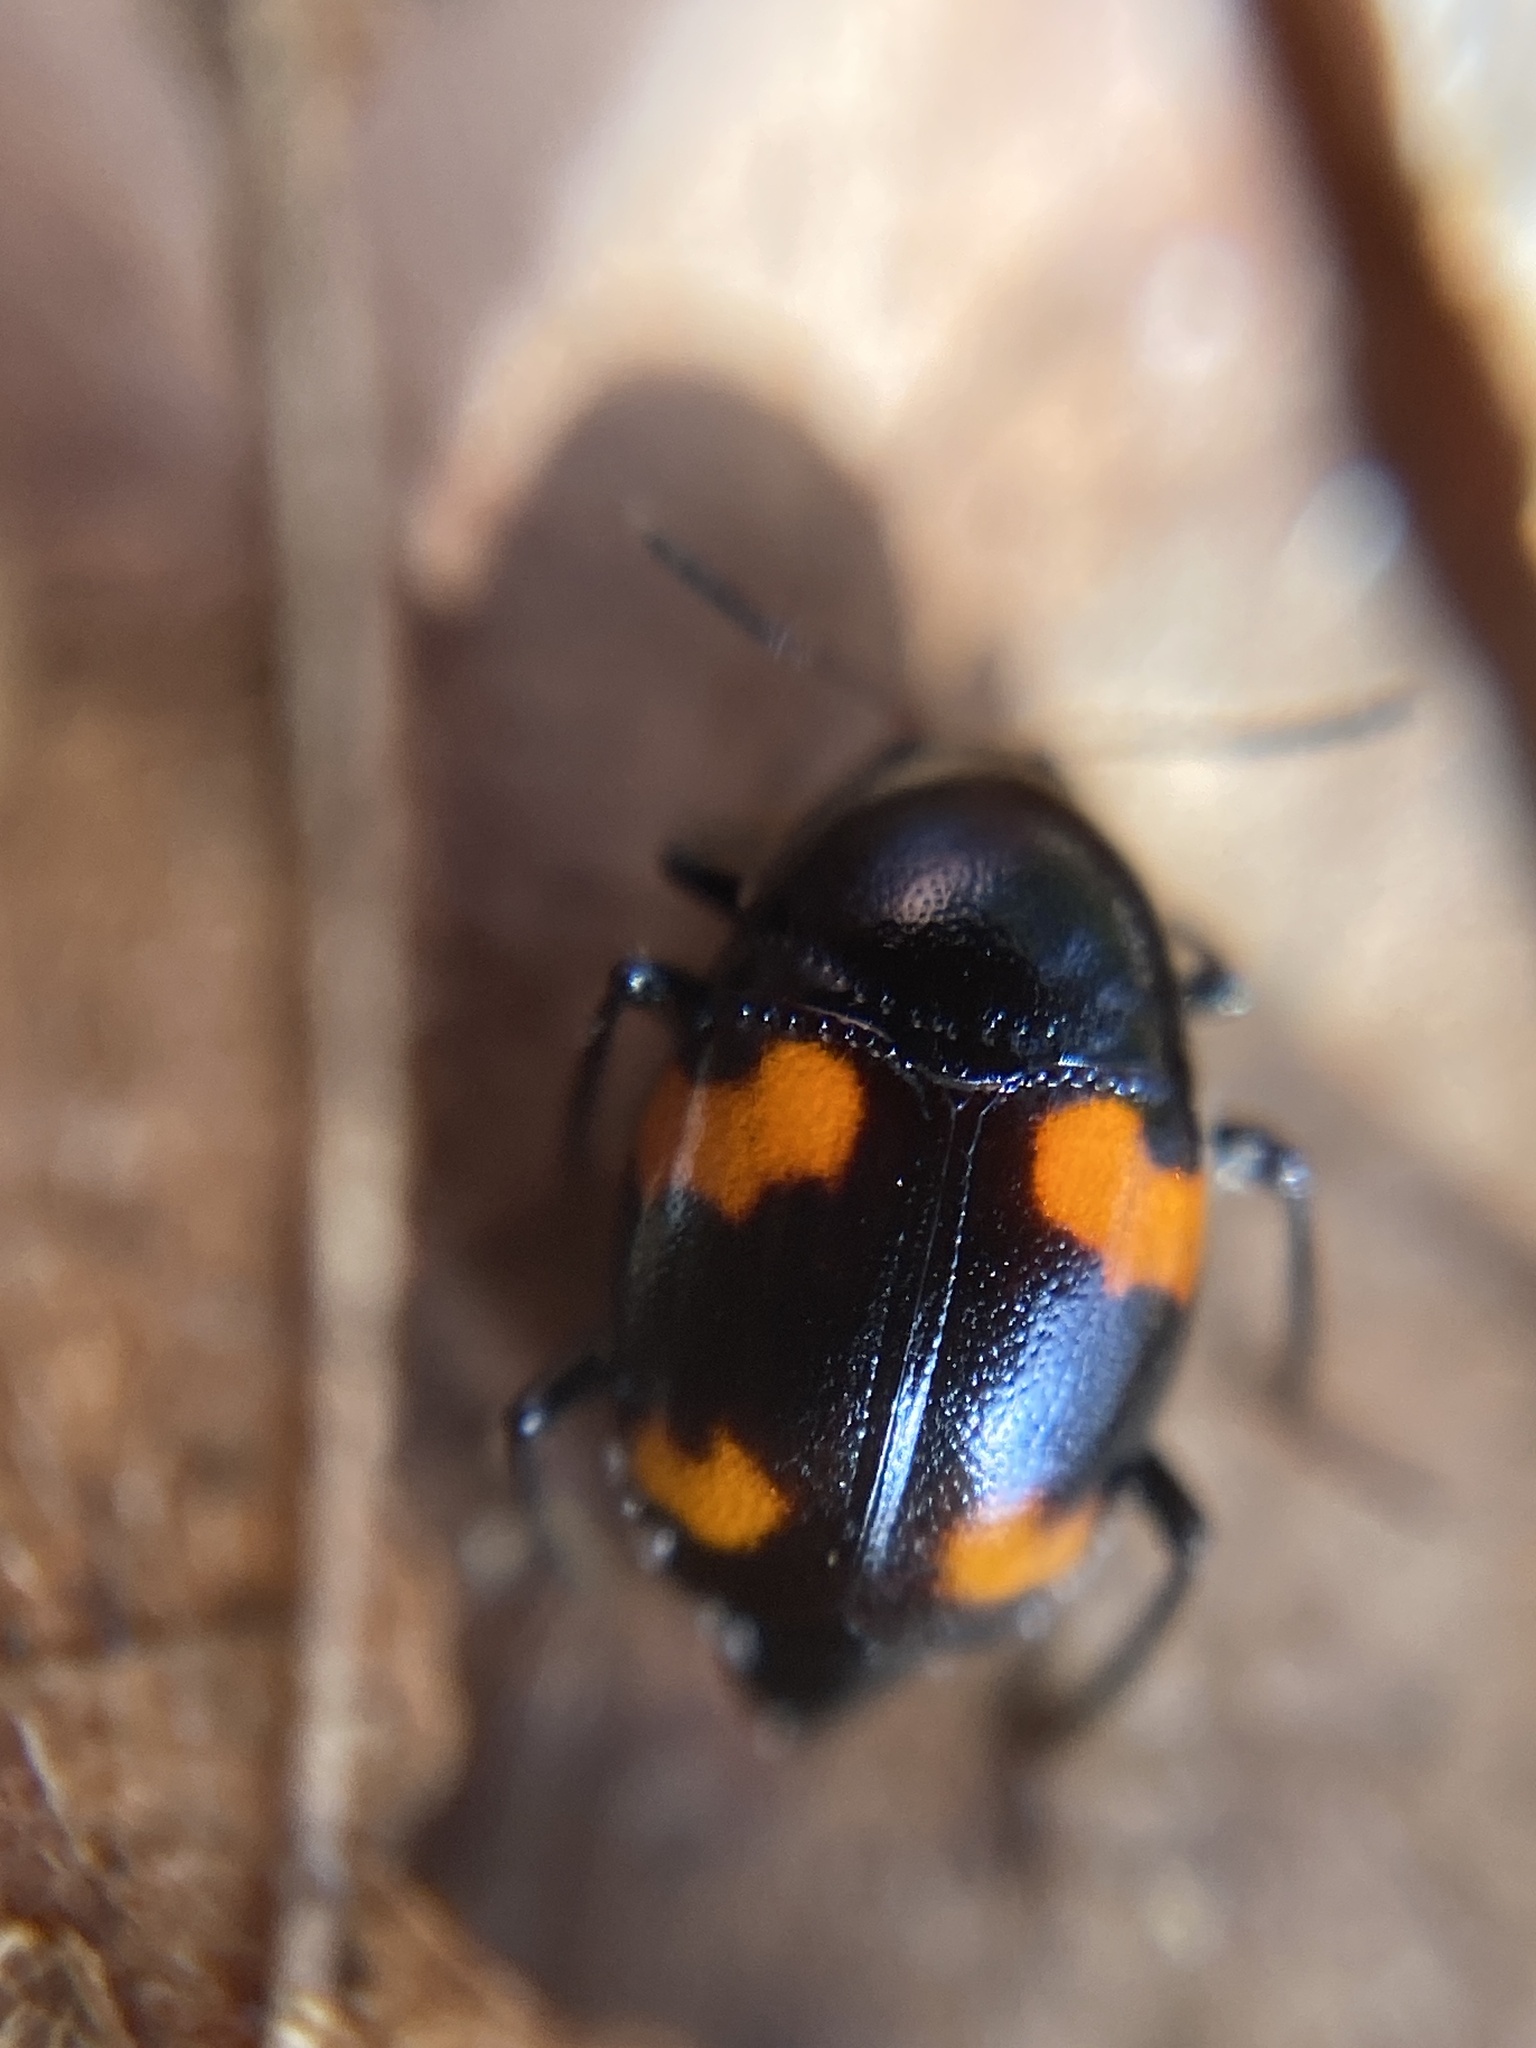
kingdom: Animalia
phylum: Arthropoda
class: Insecta
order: Coleoptera
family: Staphylinidae
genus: Scaphidium
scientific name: Scaphidium quadrimaculatum
